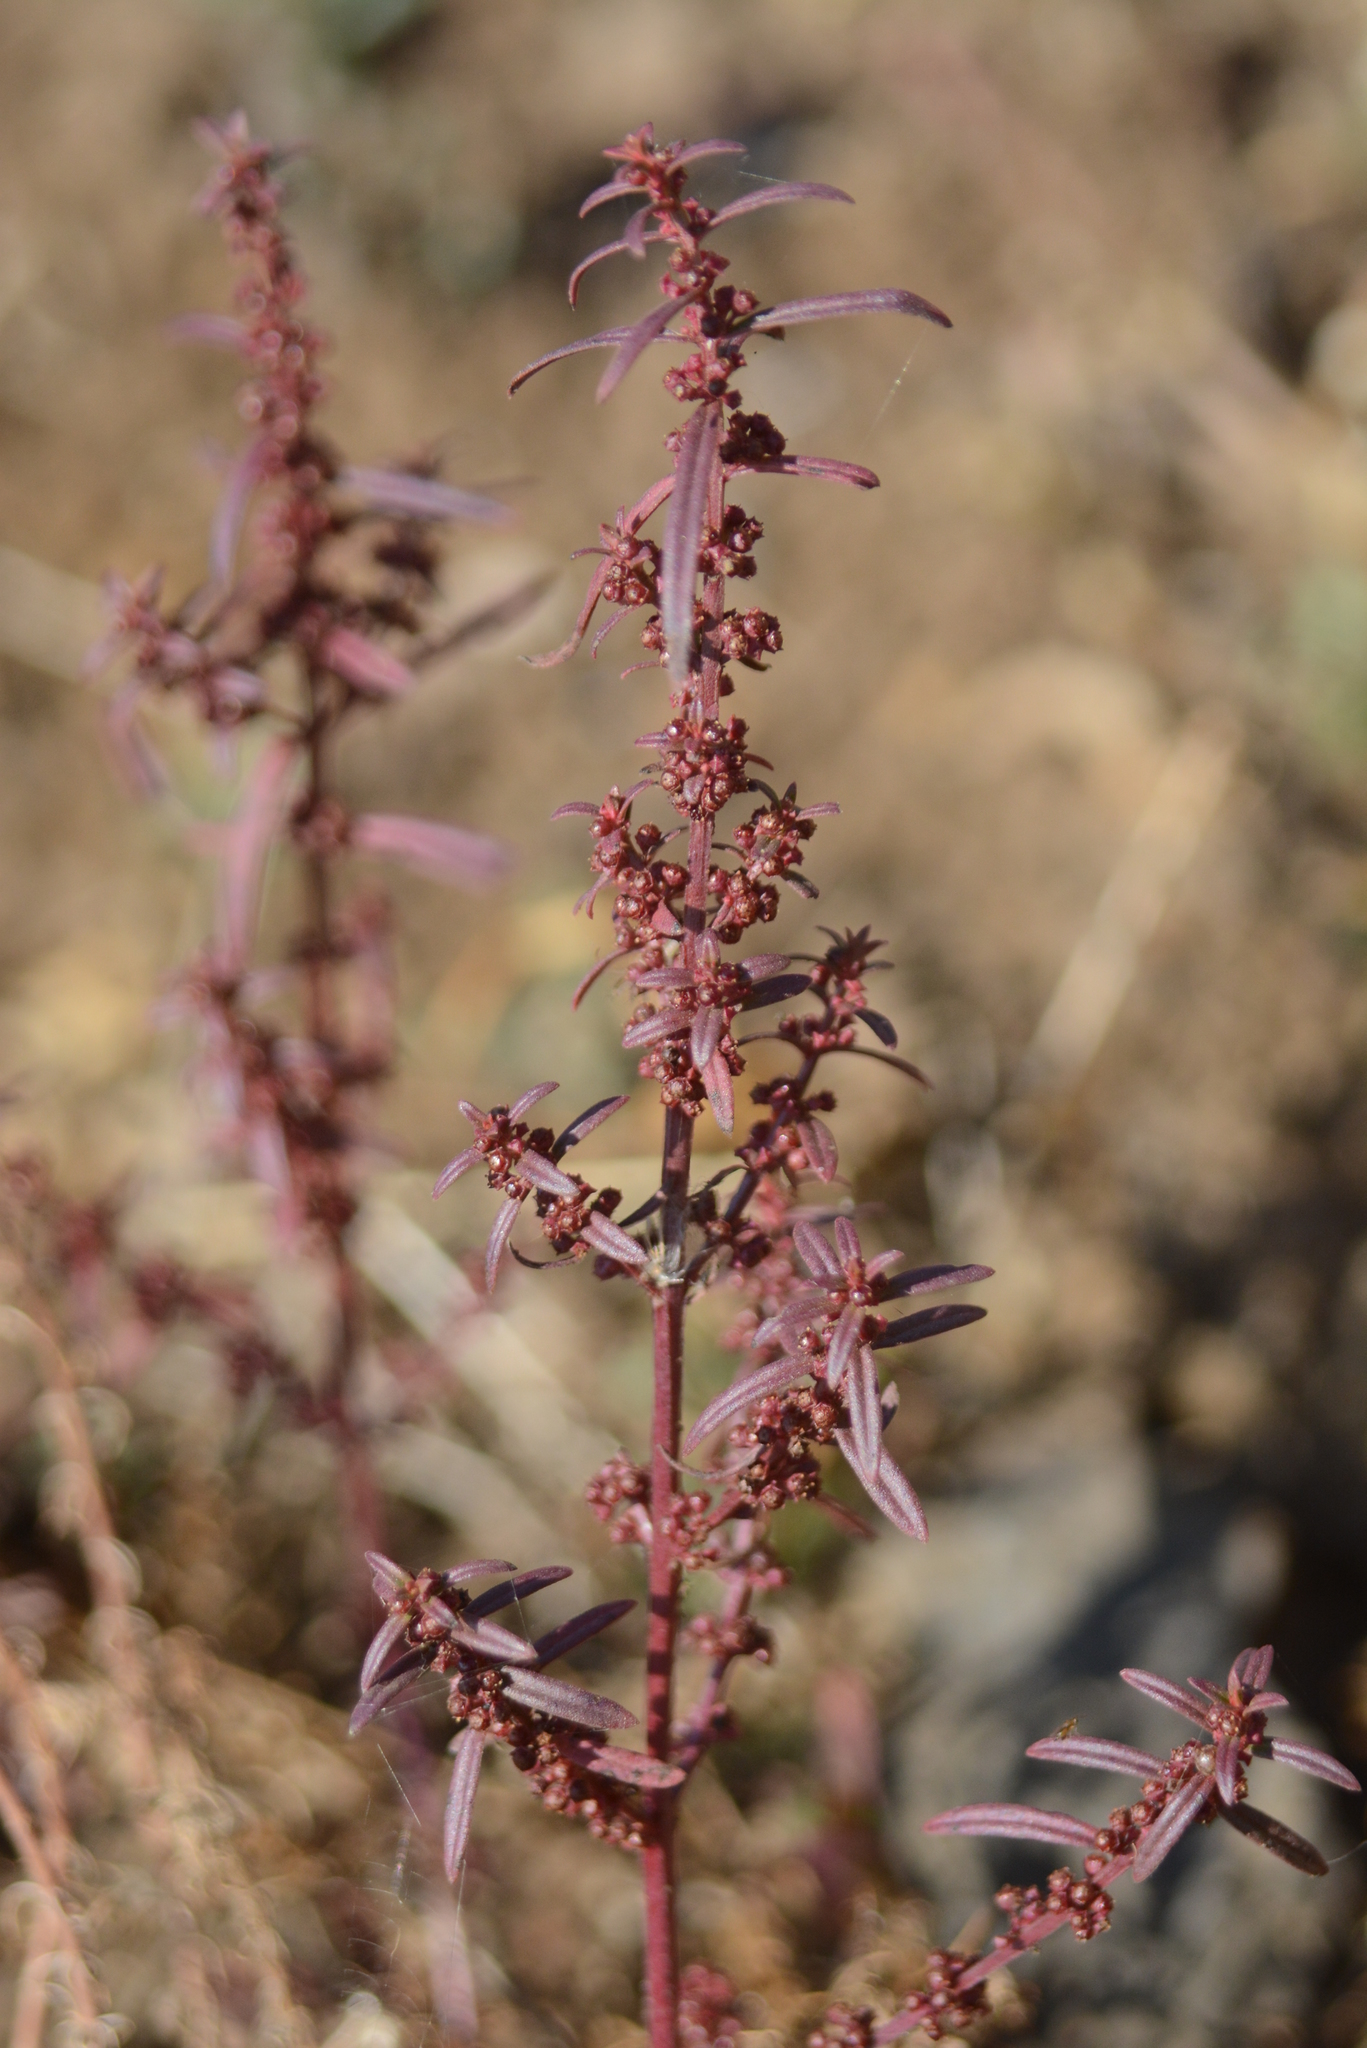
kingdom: Plantae
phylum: Tracheophyta
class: Magnoliopsida
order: Myrtales
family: Lythraceae
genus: Ammannia
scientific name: Ammannia baccifera
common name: Blistering ammania
